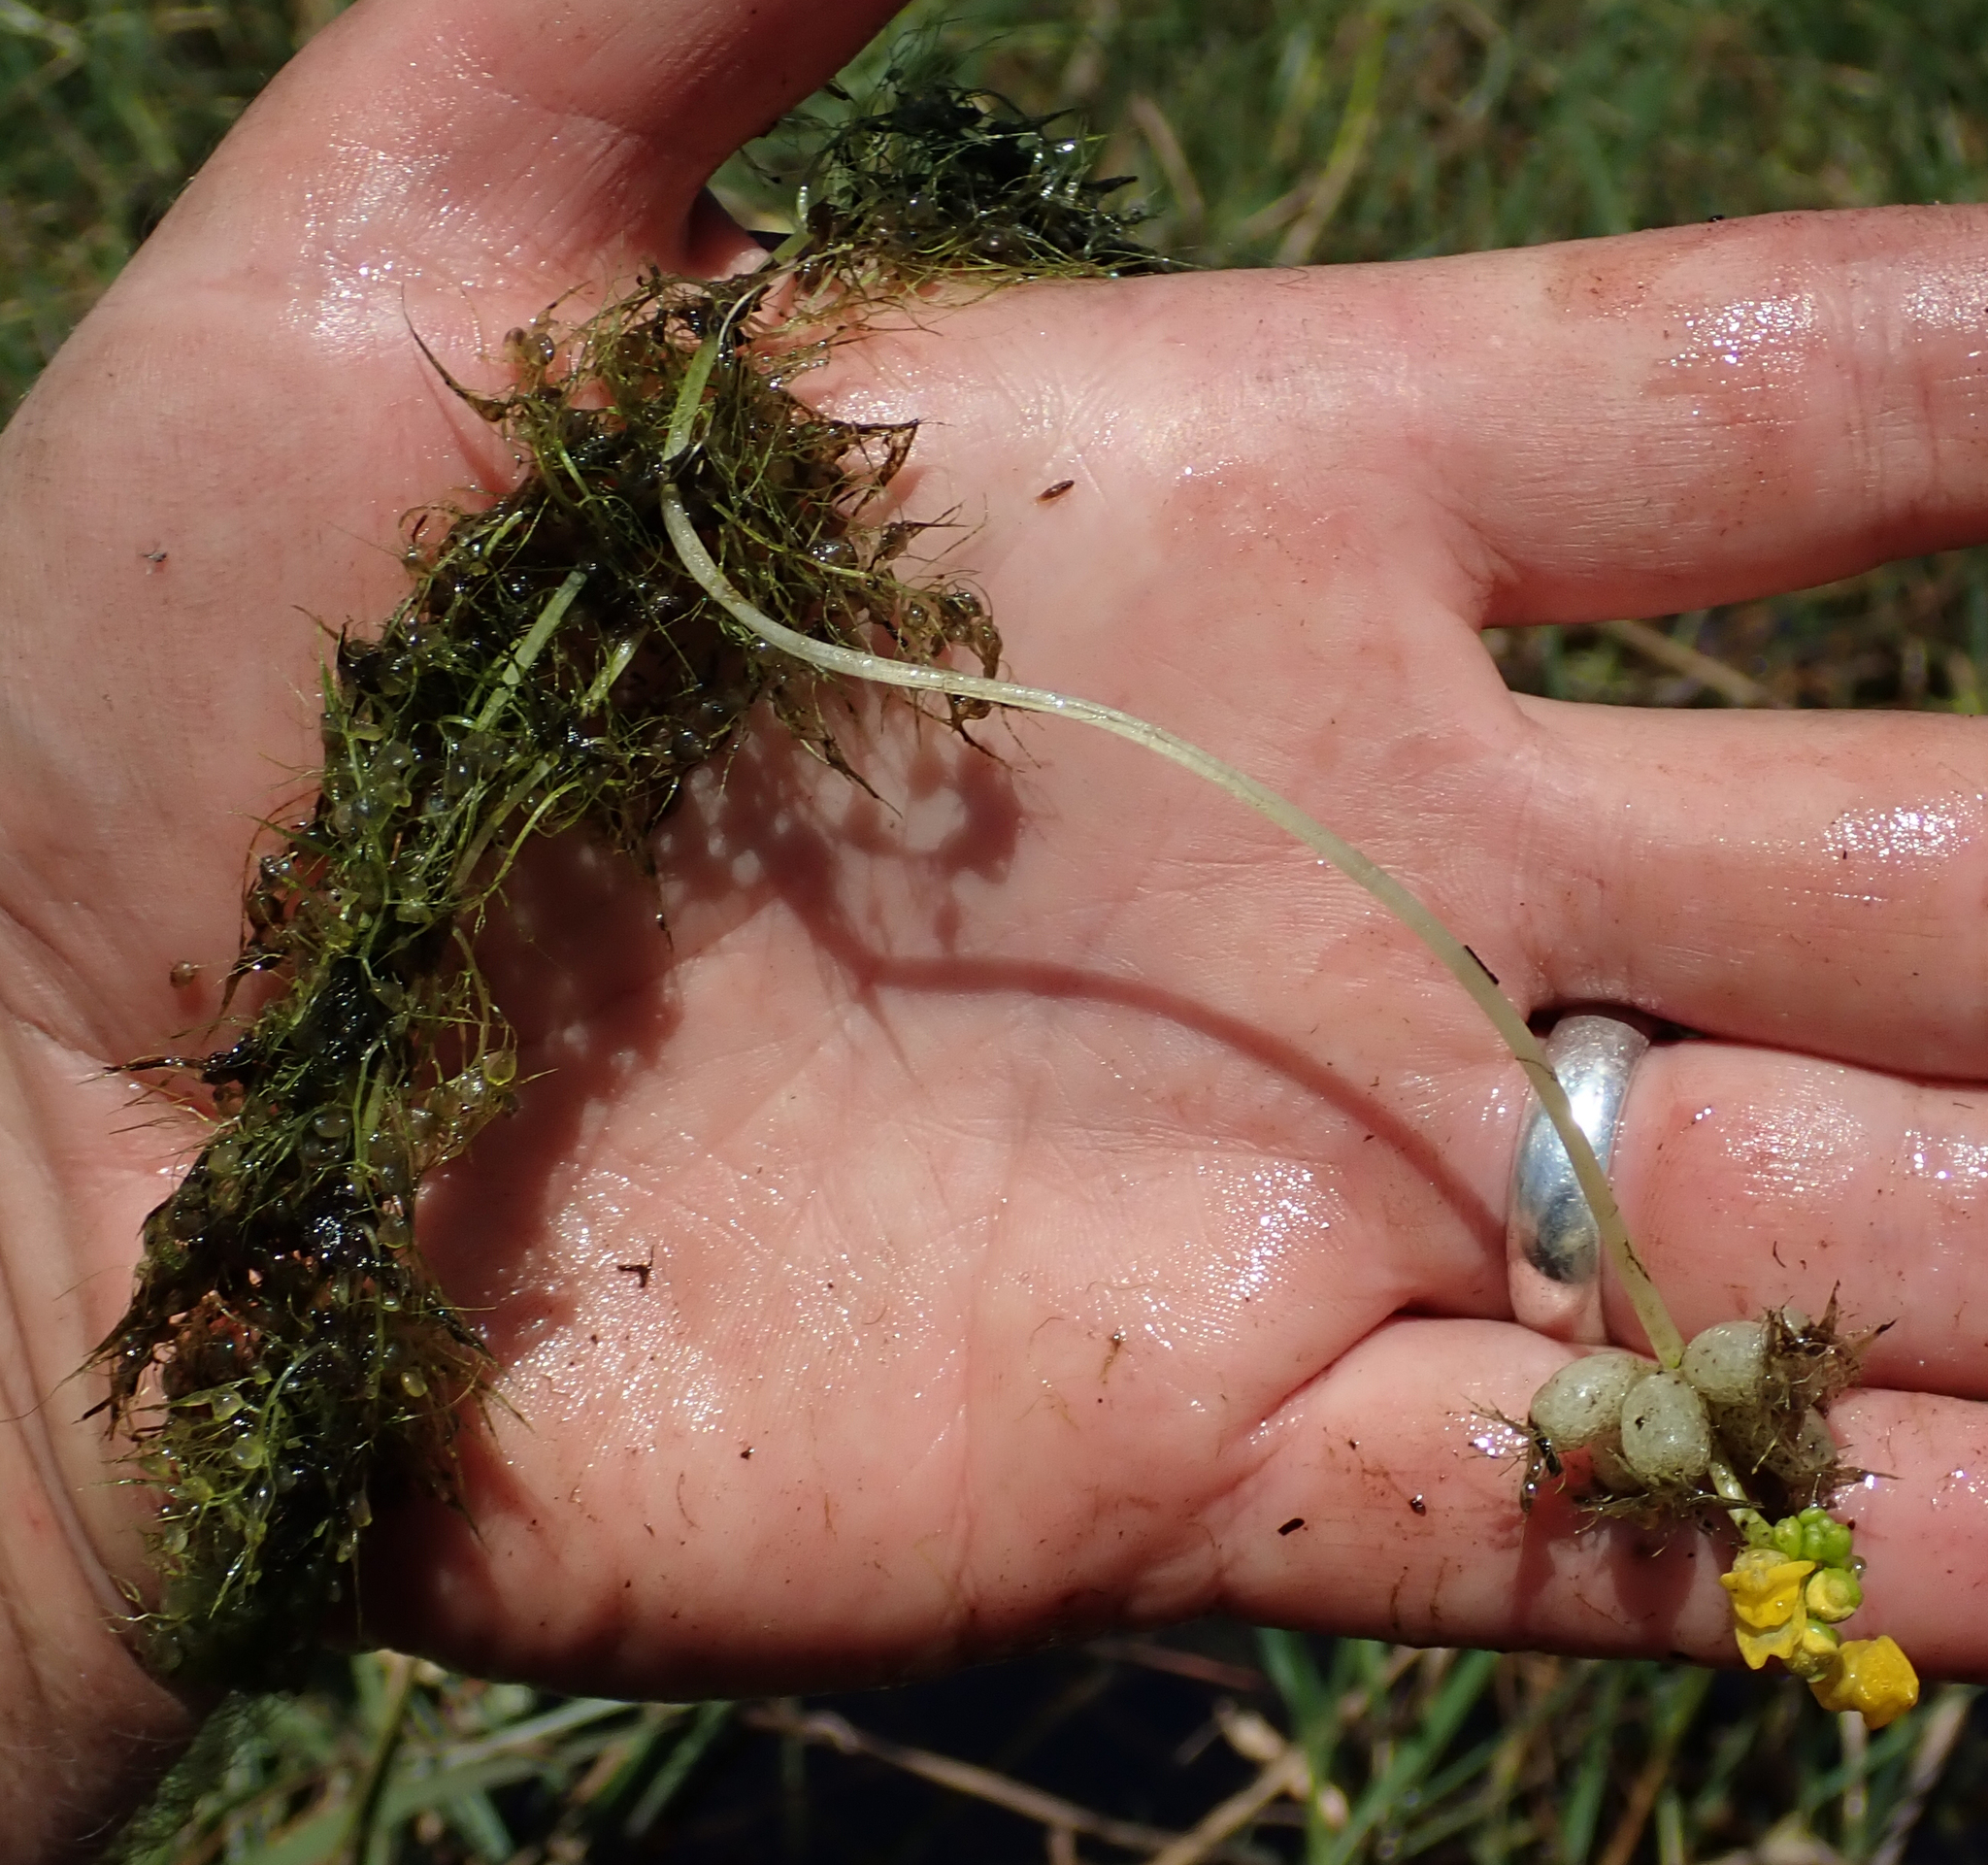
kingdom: Plantae
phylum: Tracheophyta
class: Magnoliopsida
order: Lamiales
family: Lentibulariaceae
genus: Utricularia
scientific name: Utricularia stellaris
